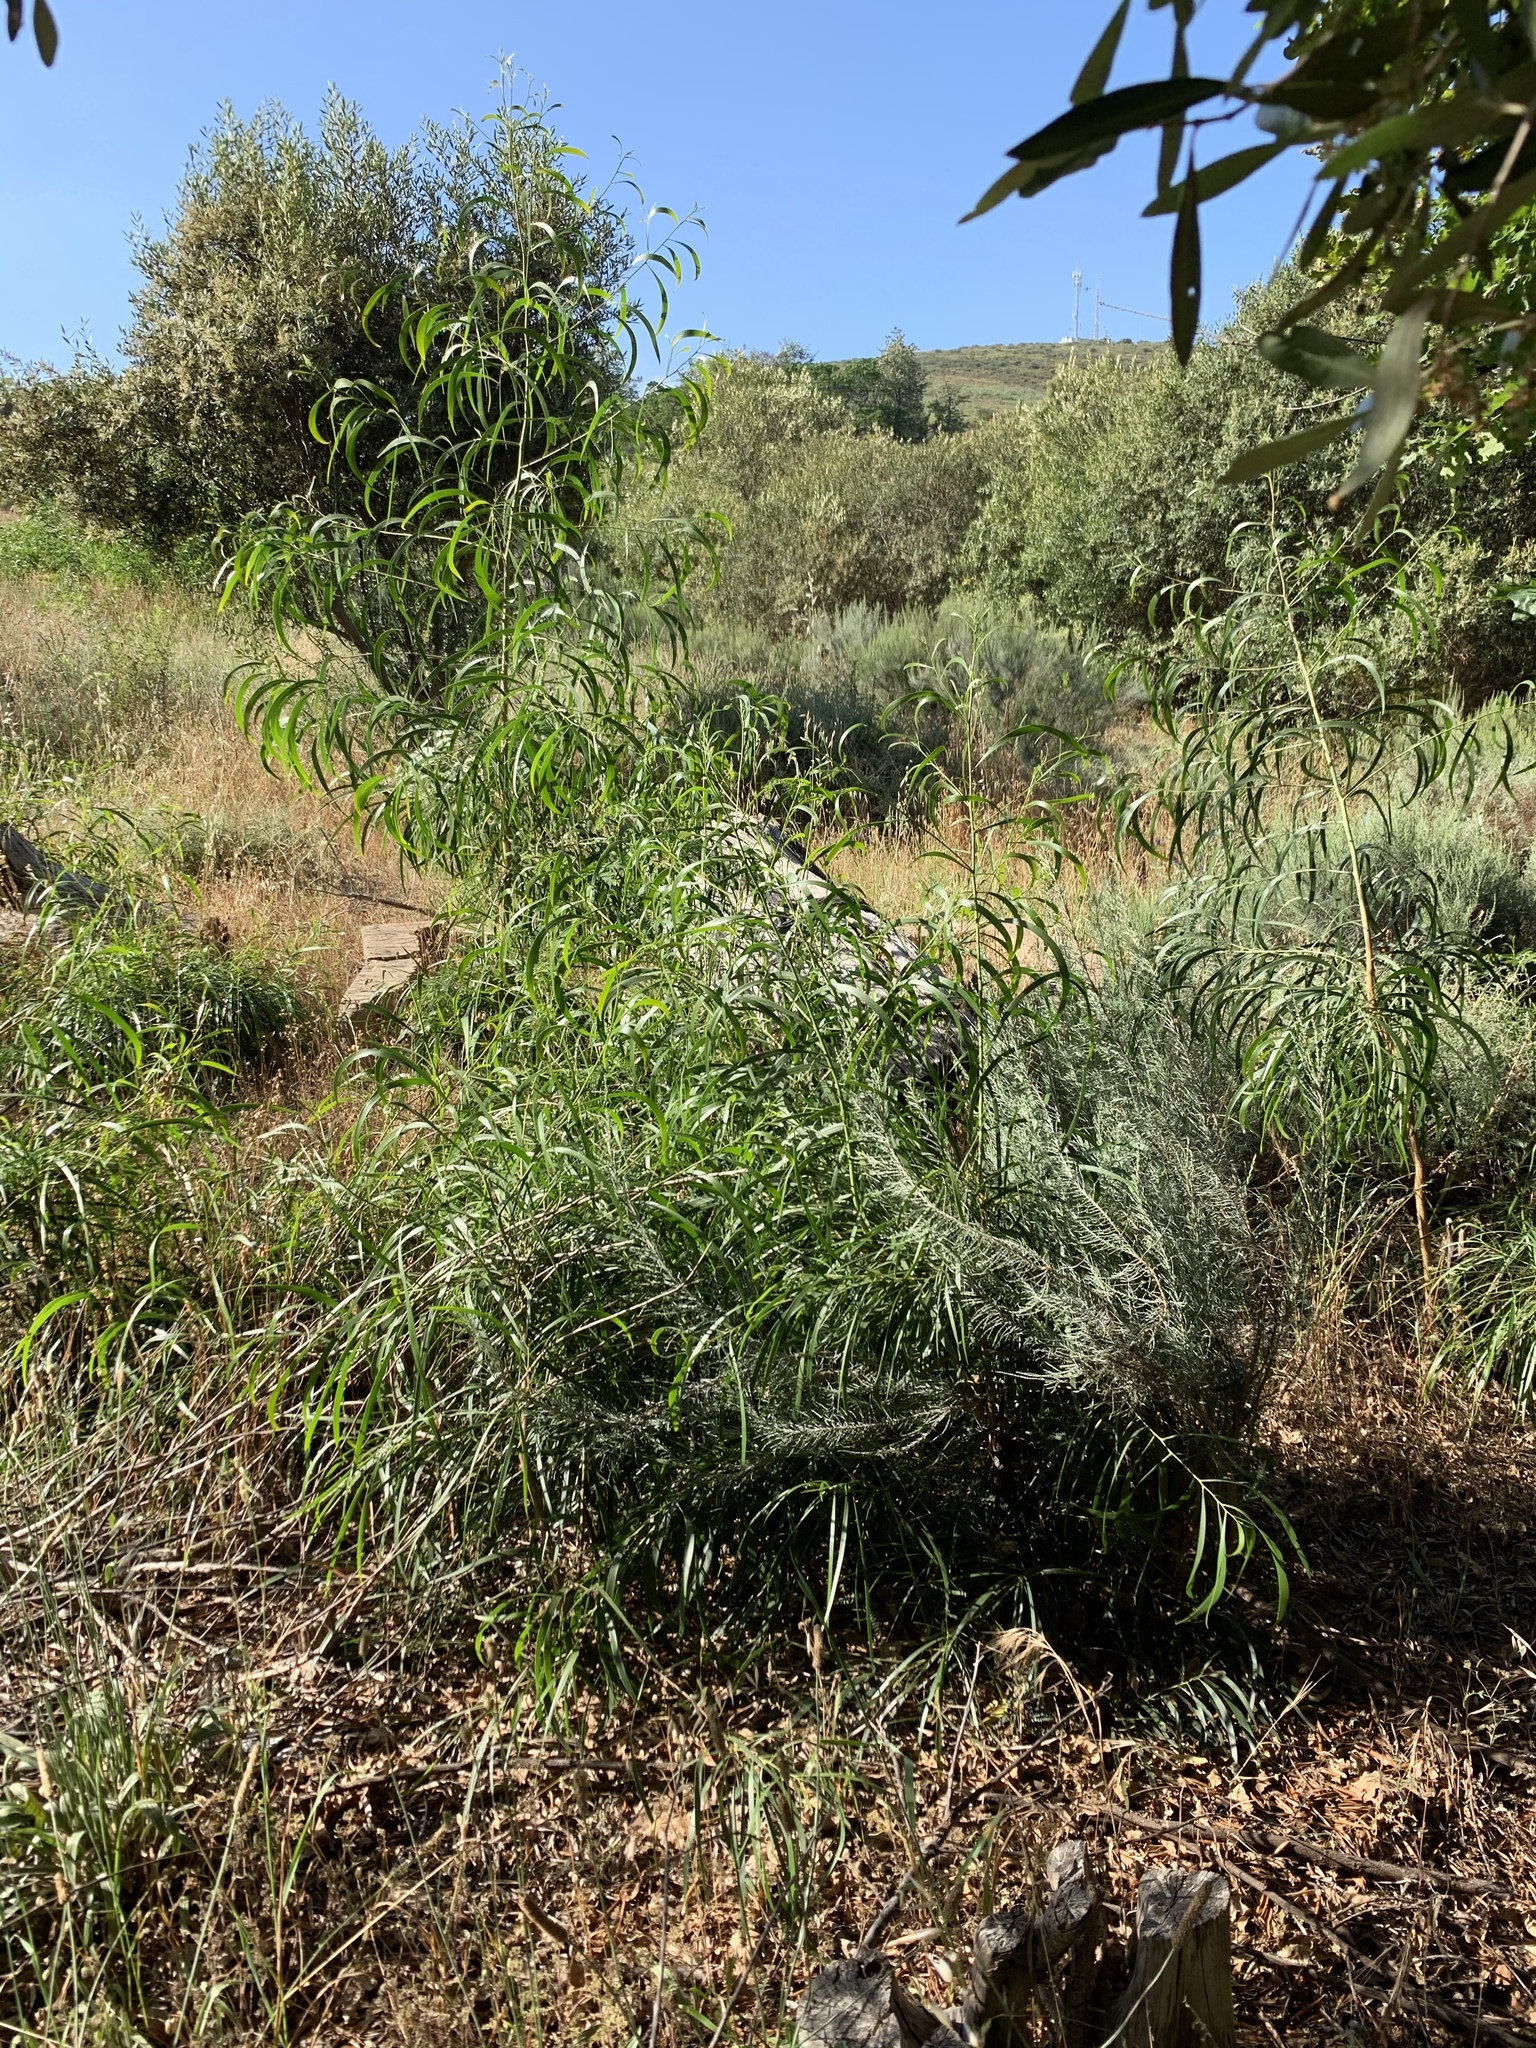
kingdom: Plantae
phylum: Tracheophyta
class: Magnoliopsida
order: Fabales
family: Fabaceae
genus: Acacia
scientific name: Acacia implexa
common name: Black wattle
